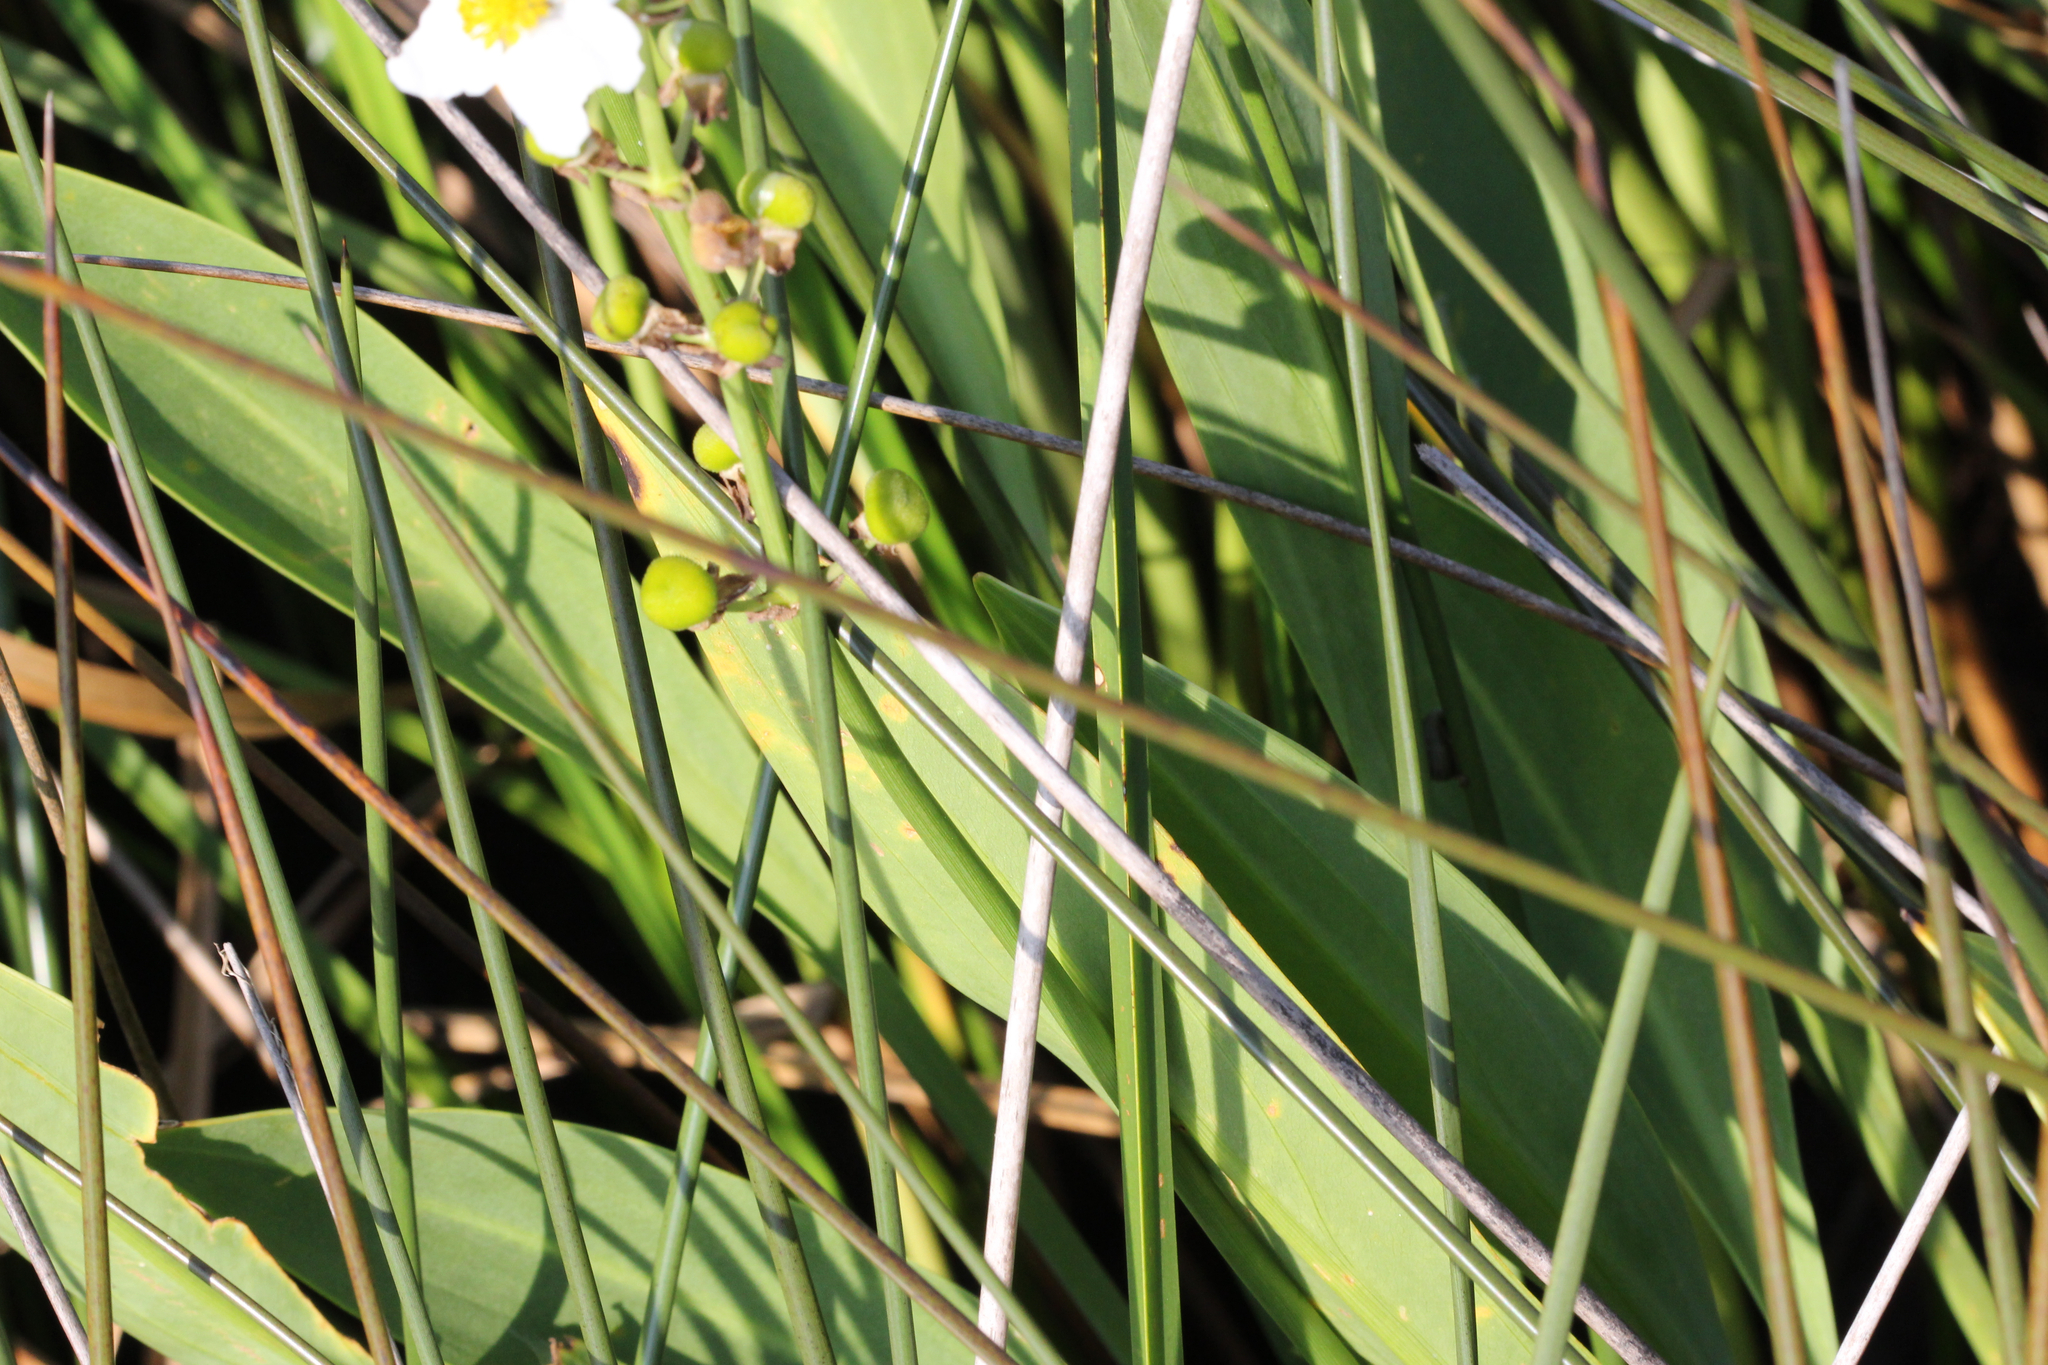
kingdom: Plantae
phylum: Tracheophyta
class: Liliopsida
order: Alismatales
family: Alismataceae
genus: Sagittaria
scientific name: Sagittaria lancifolia
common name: Lance-leaf arrowhead
